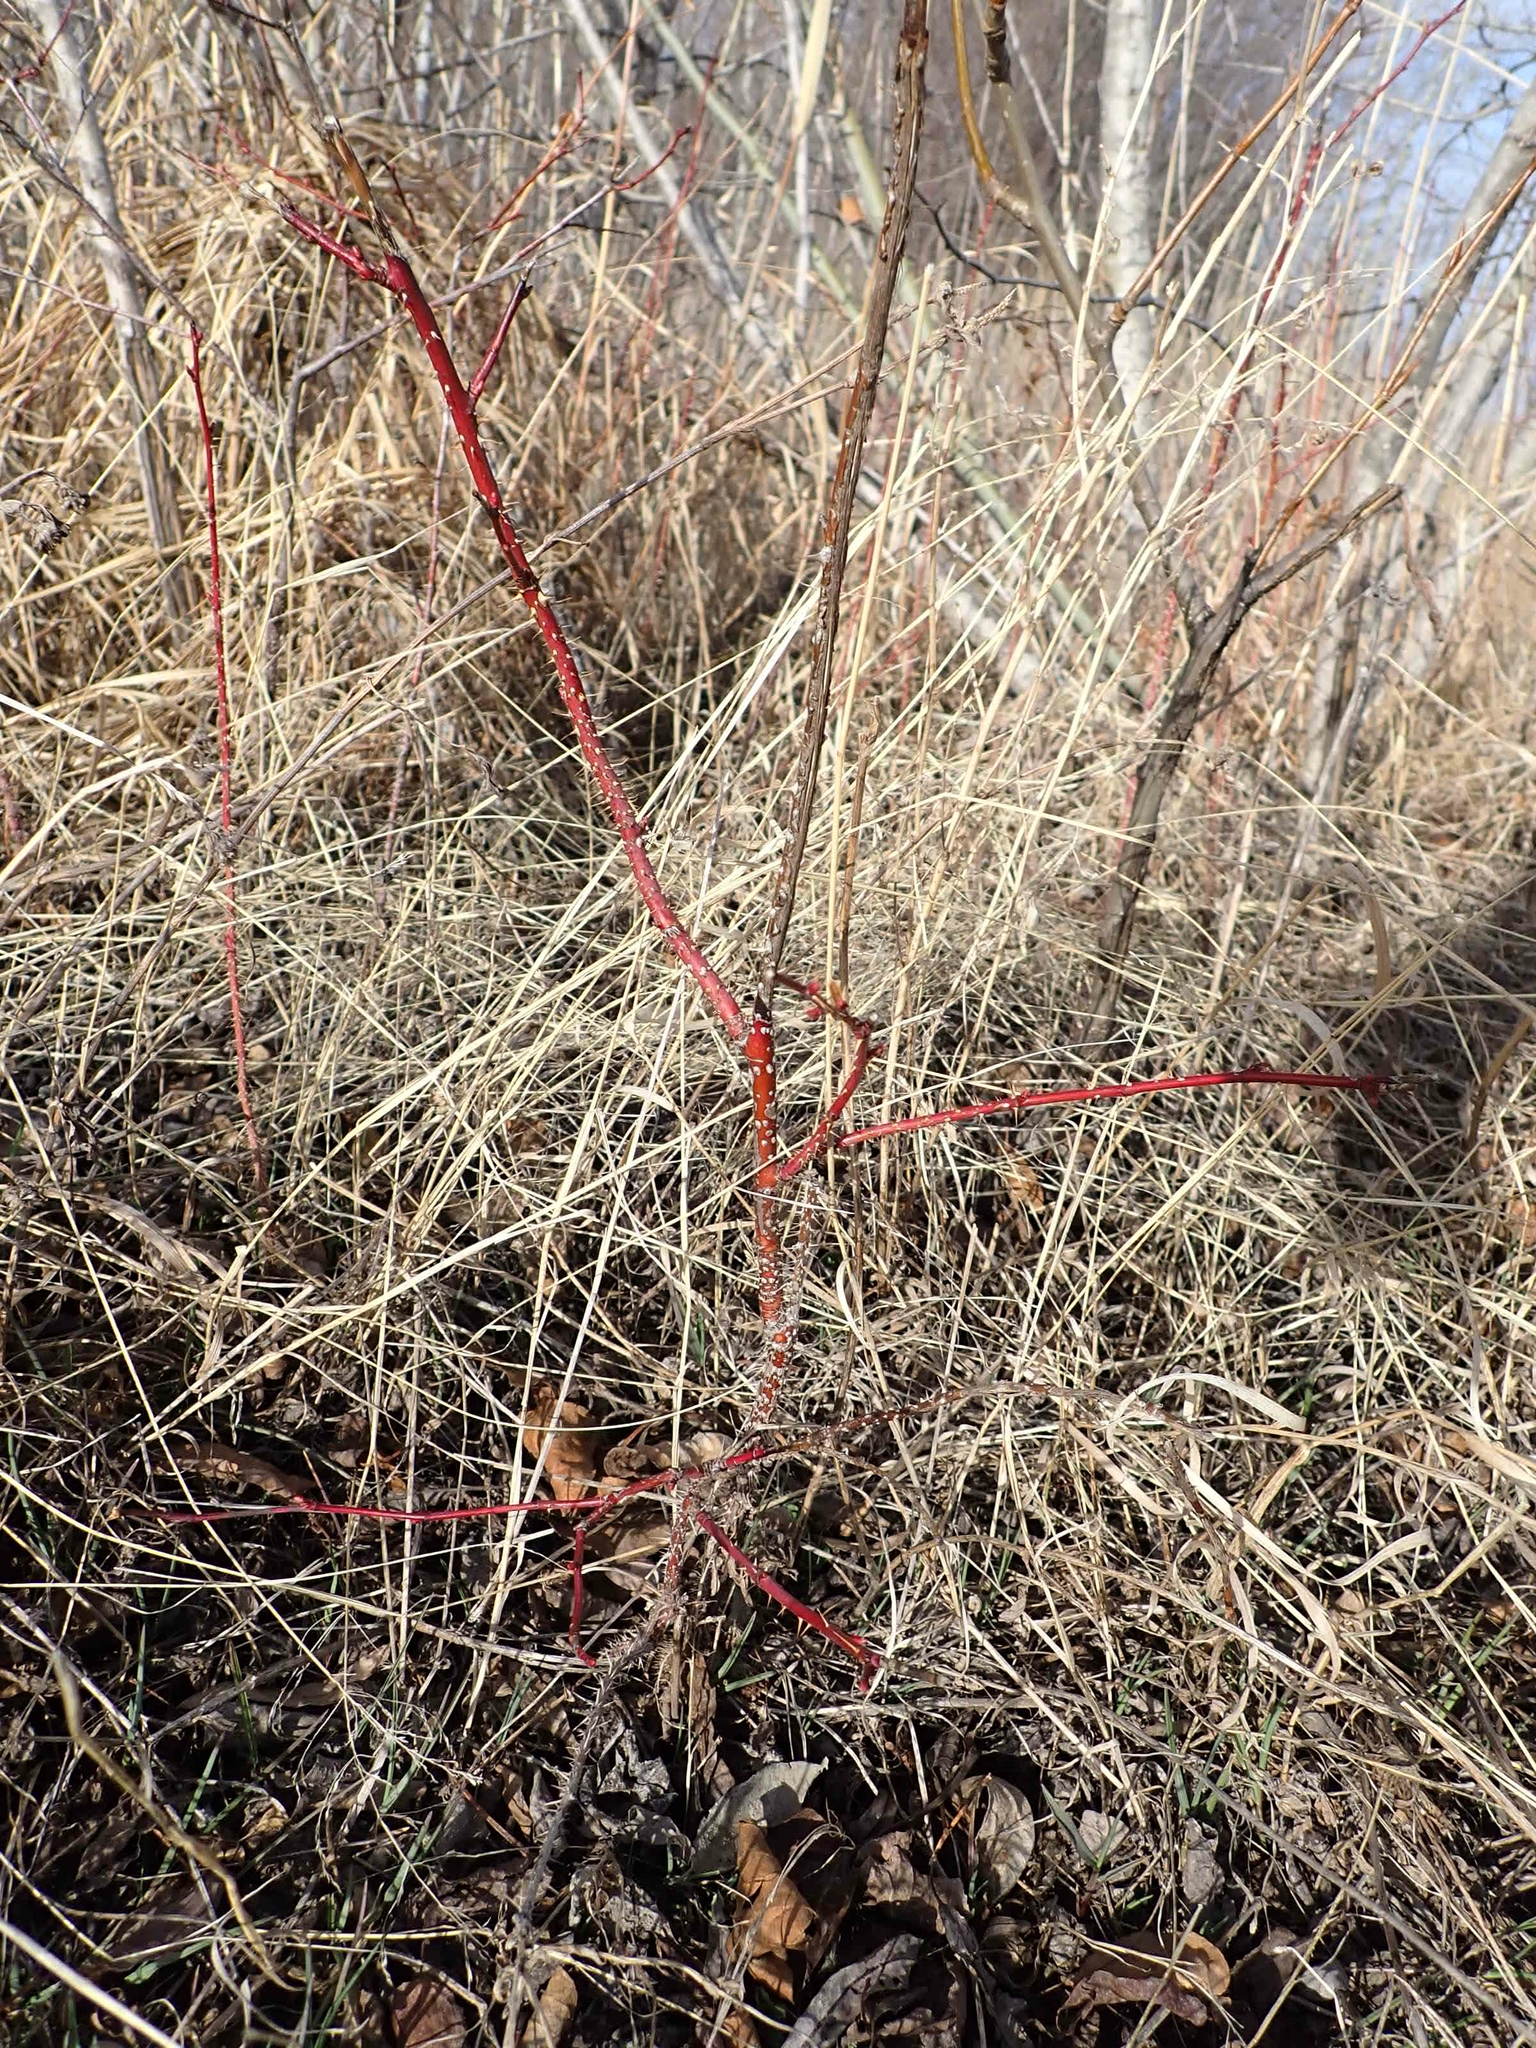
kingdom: Plantae
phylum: Tracheophyta
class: Magnoliopsida
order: Rosales
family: Rosaceae
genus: Rosa
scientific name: Rosa woodsii
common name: Woods's rose
